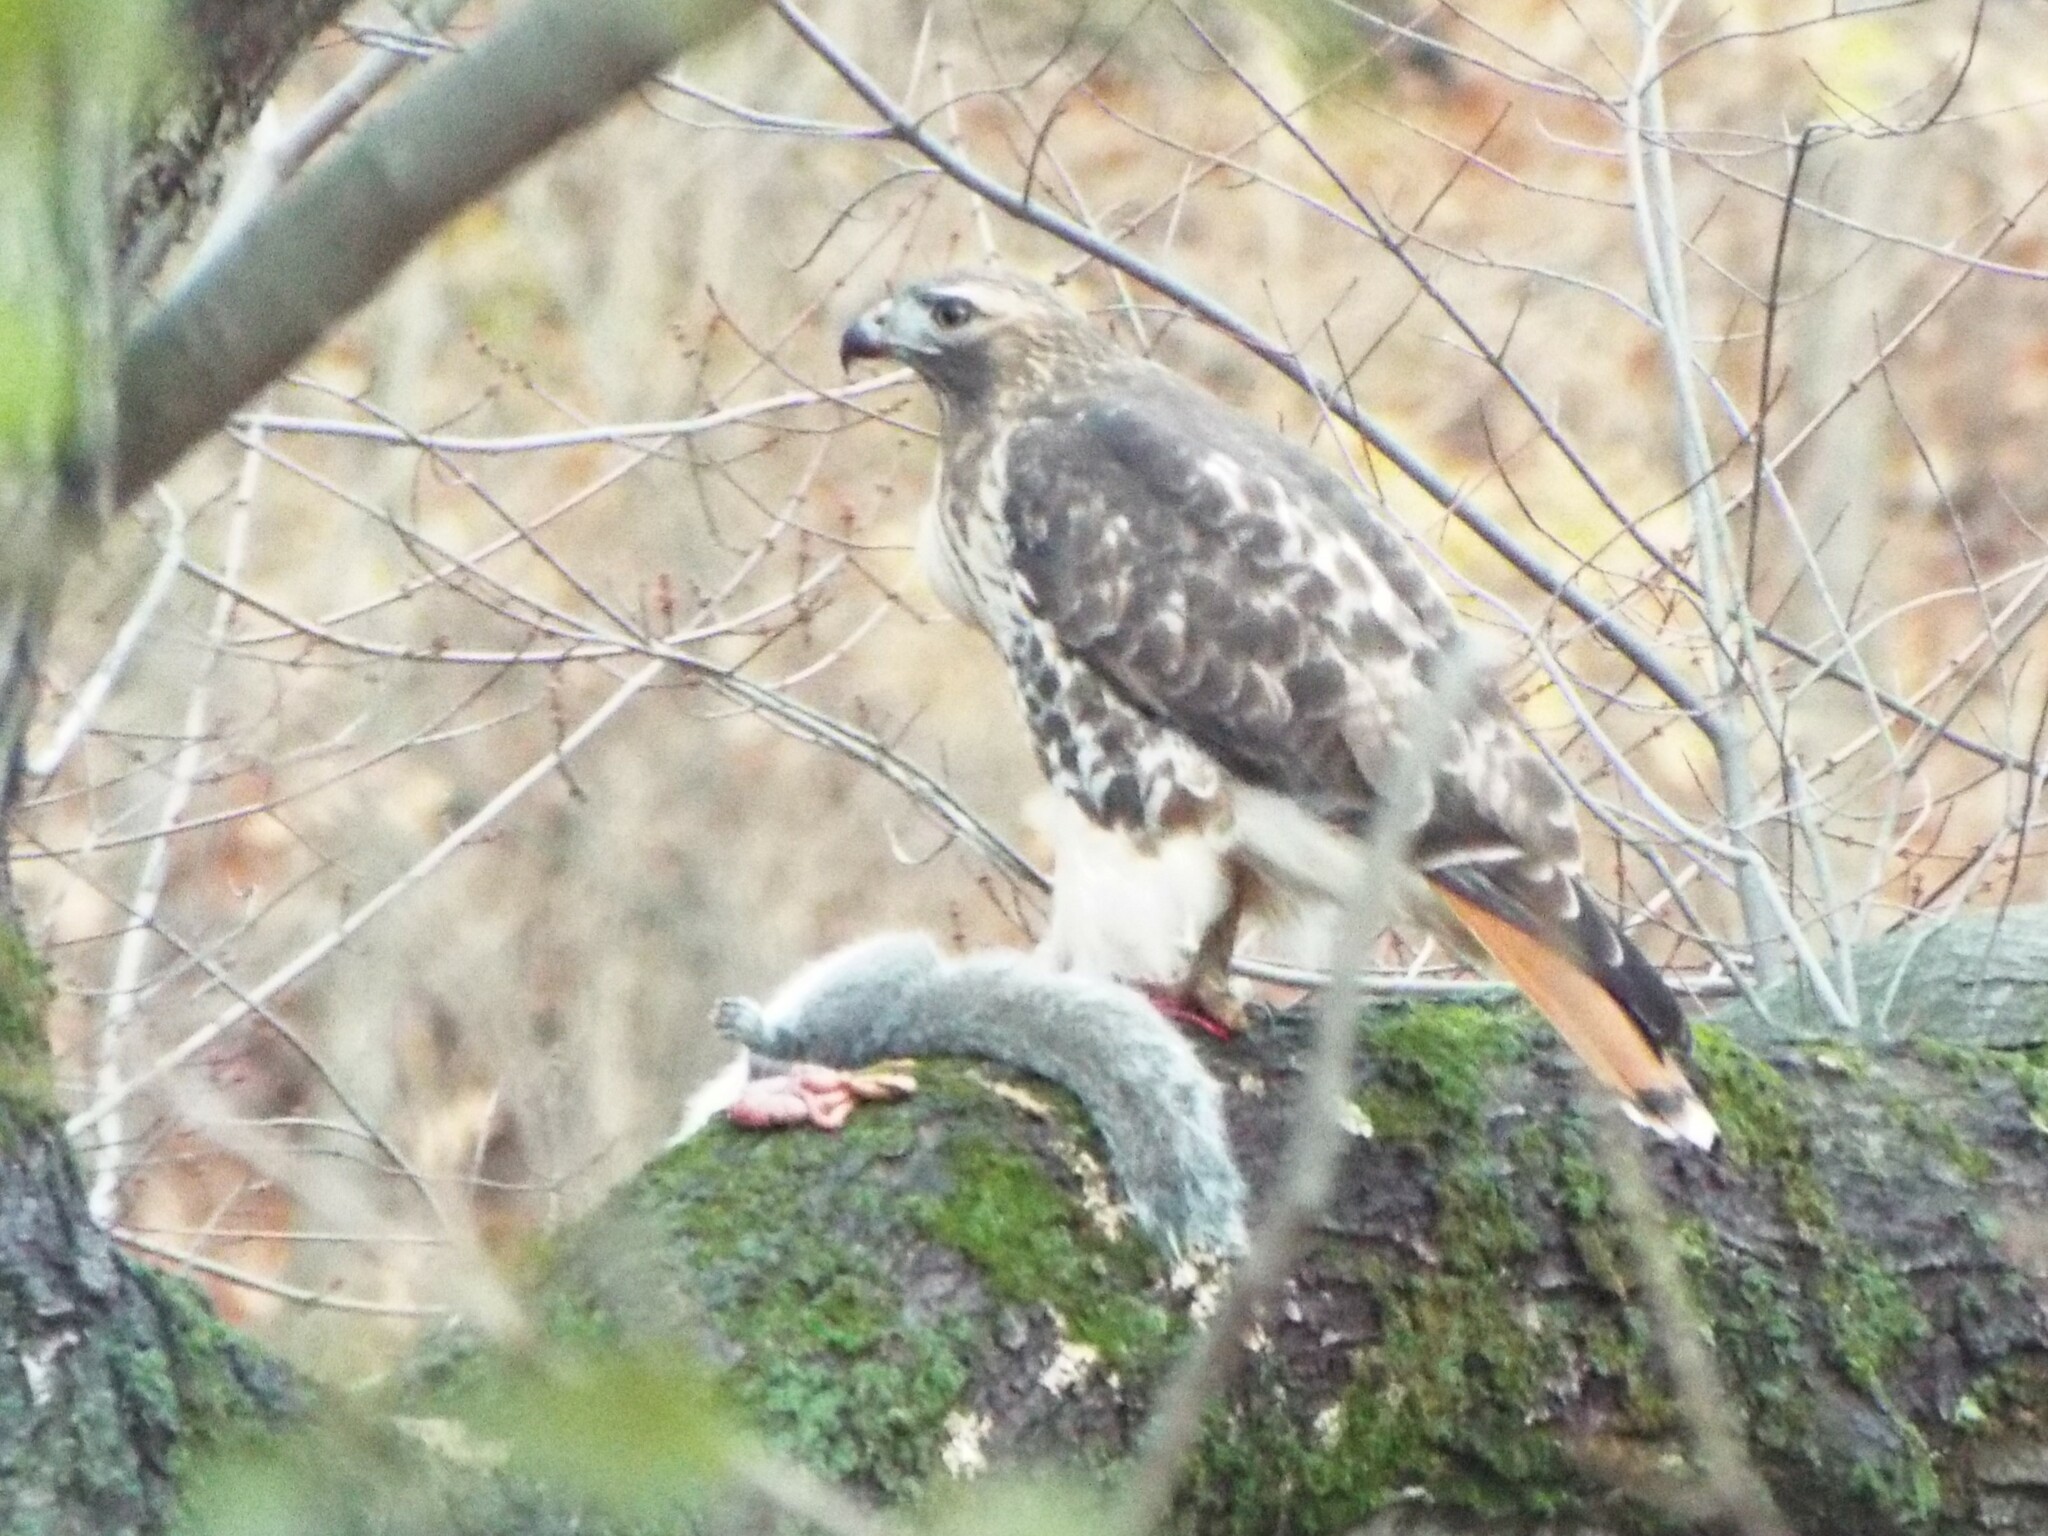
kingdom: Animalia
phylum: Chordata
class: Mammalia
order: Rodentia
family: Sciuridae
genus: Sciurus
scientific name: Sciurus carolinensis
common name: Eastern gray squirrel
